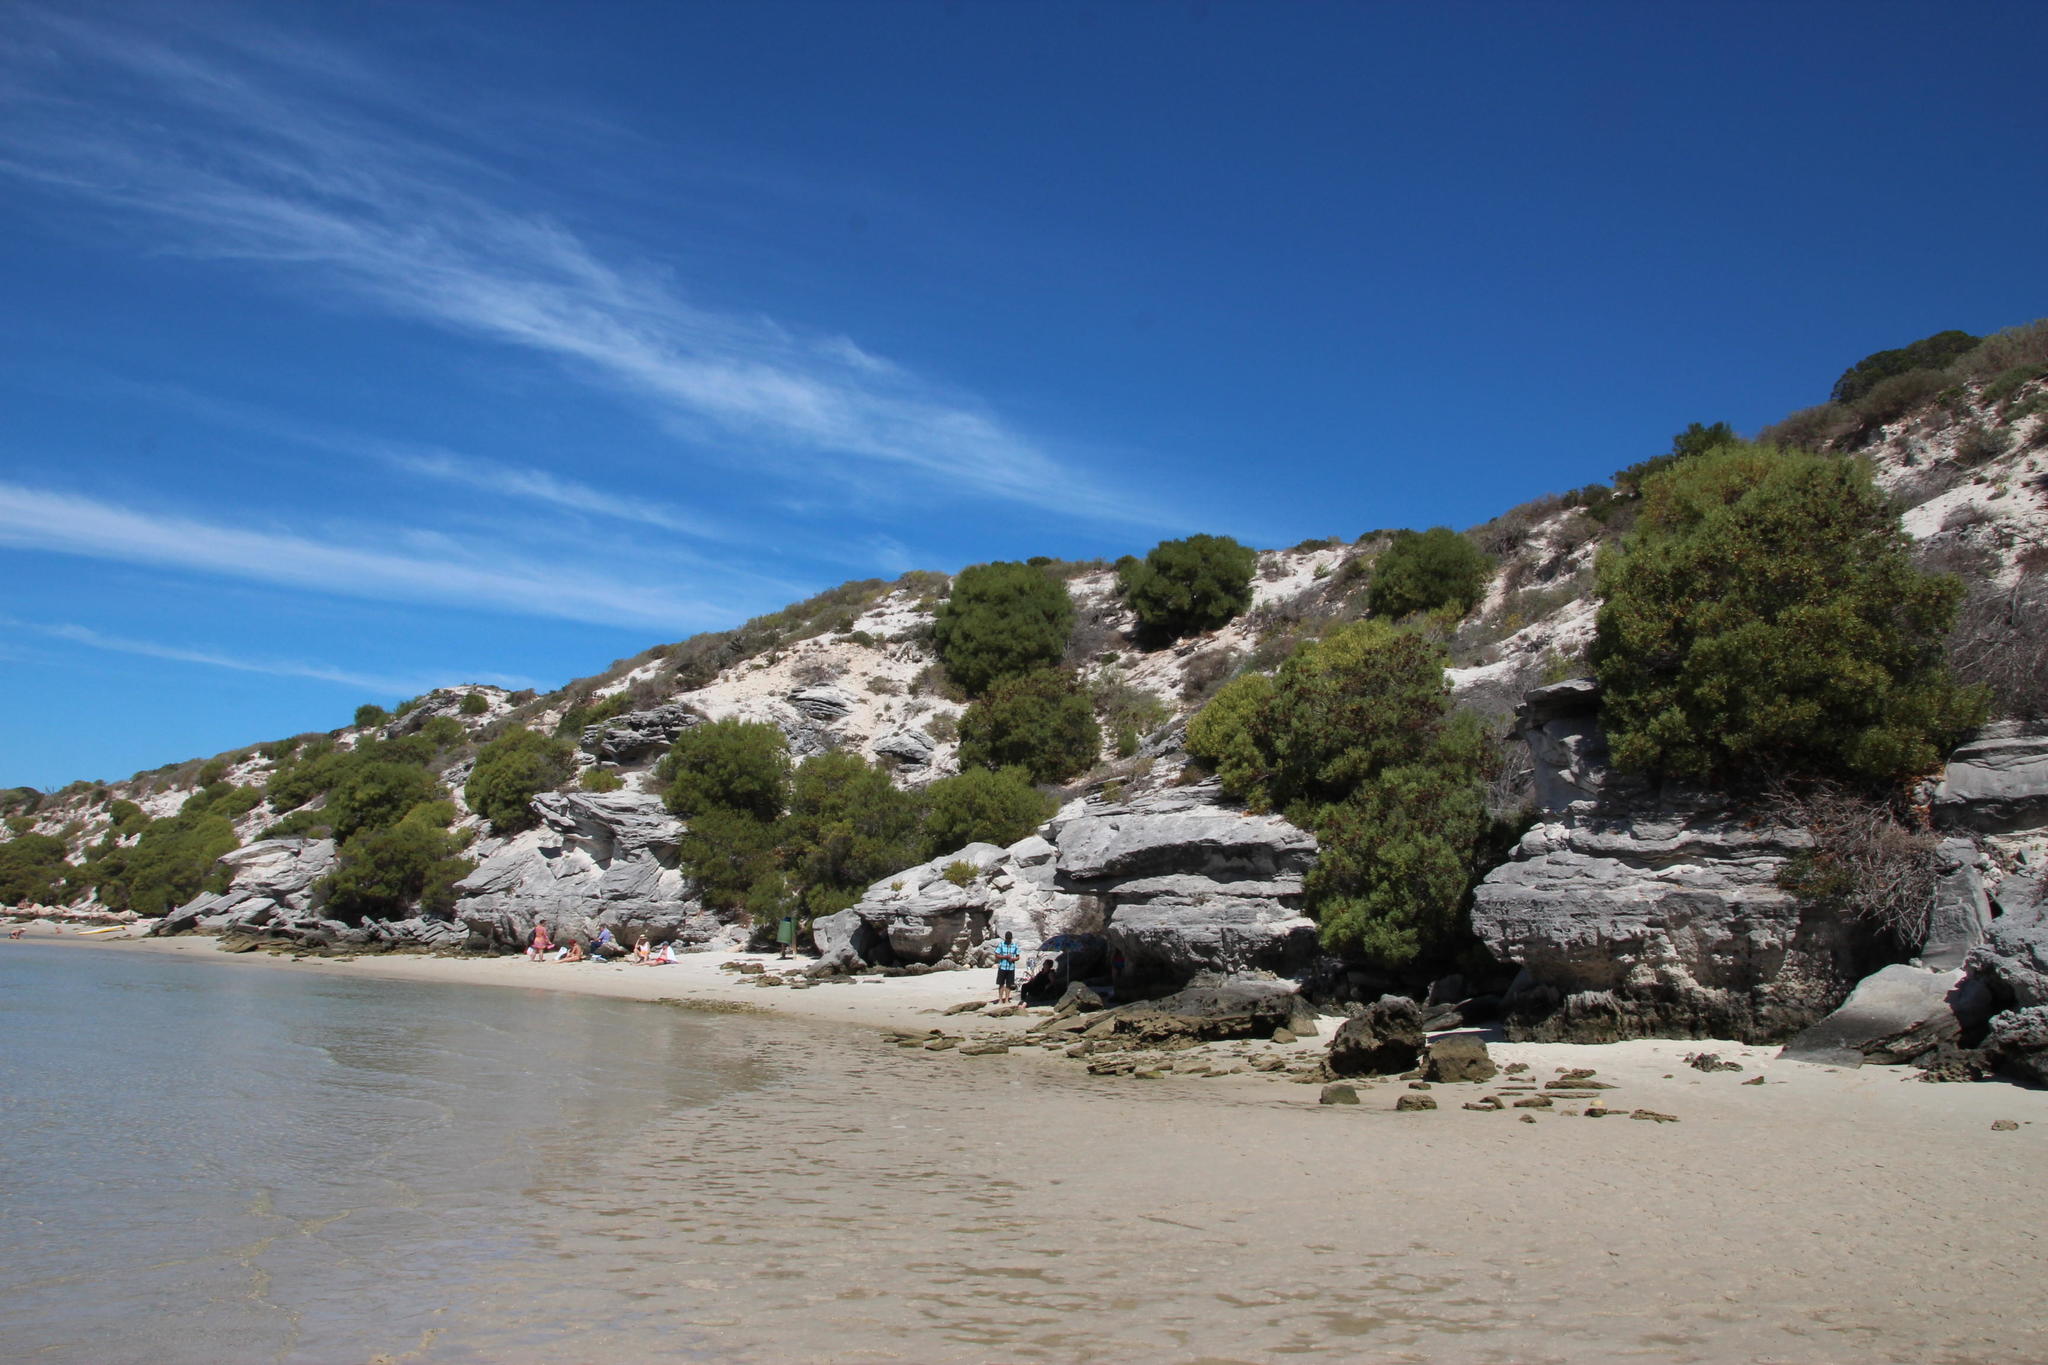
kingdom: Plantae
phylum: Tracheophyta
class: Magnoliopsida
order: Fabales
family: Fabaceae
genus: Acacia
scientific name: Acacia cyclops
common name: Coastal wattle
